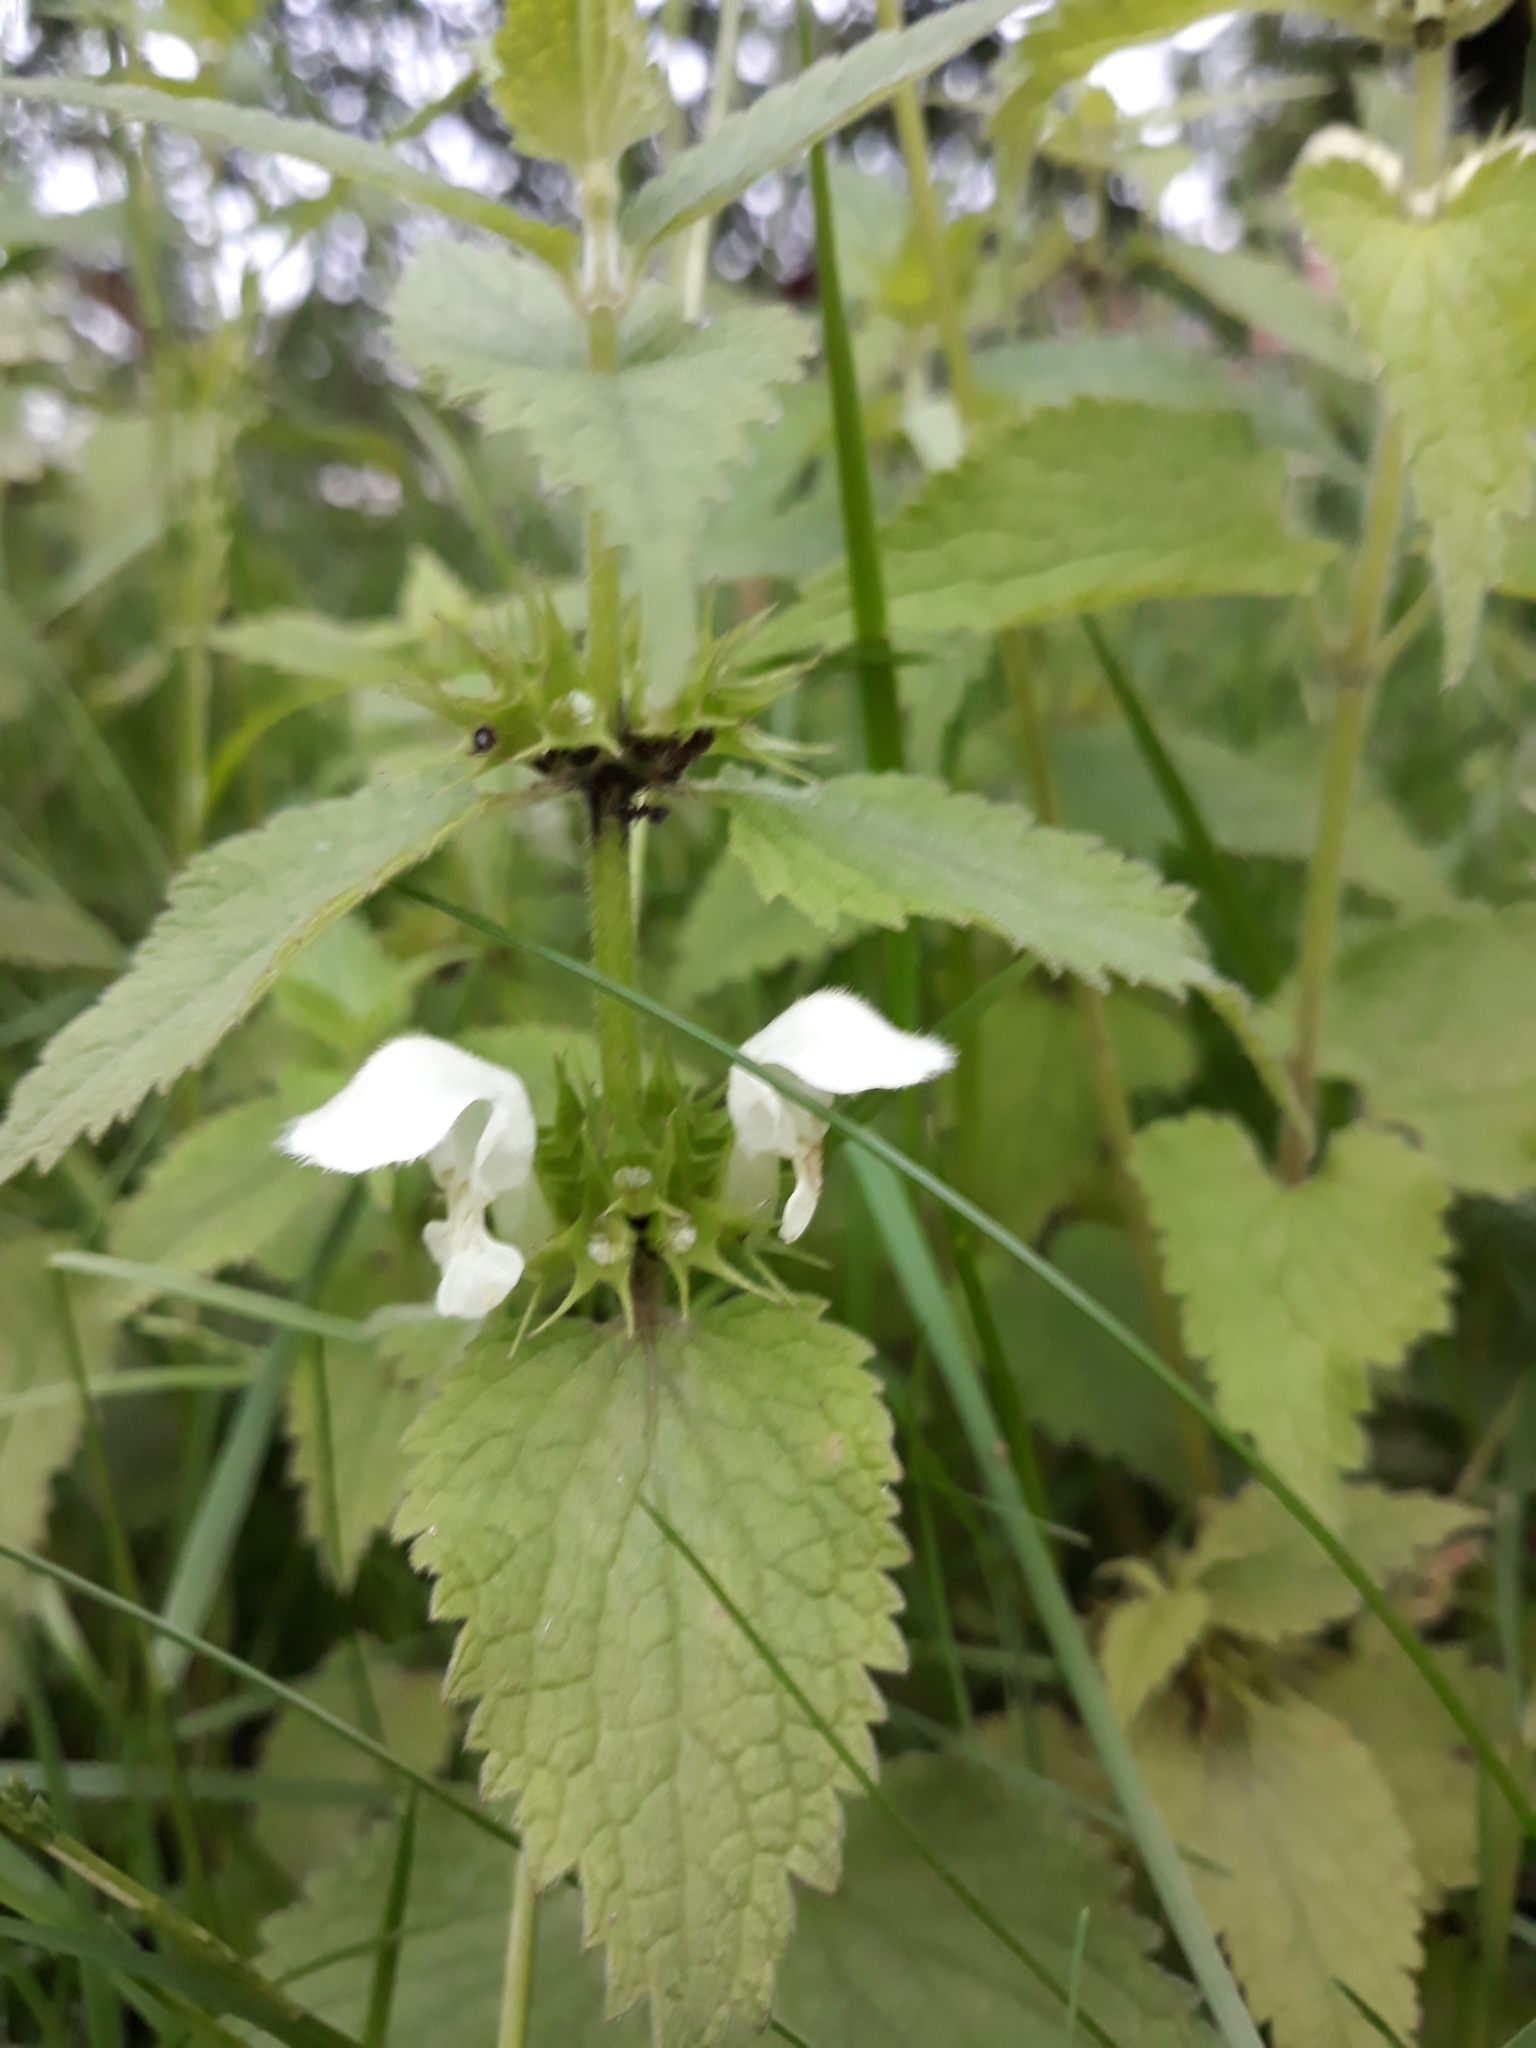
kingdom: Plantae
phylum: Tracheophyta
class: Magnoliopsida
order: Lamiales
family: Lamiaceae
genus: Lamium
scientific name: Lamium album
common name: White dead-nettle
